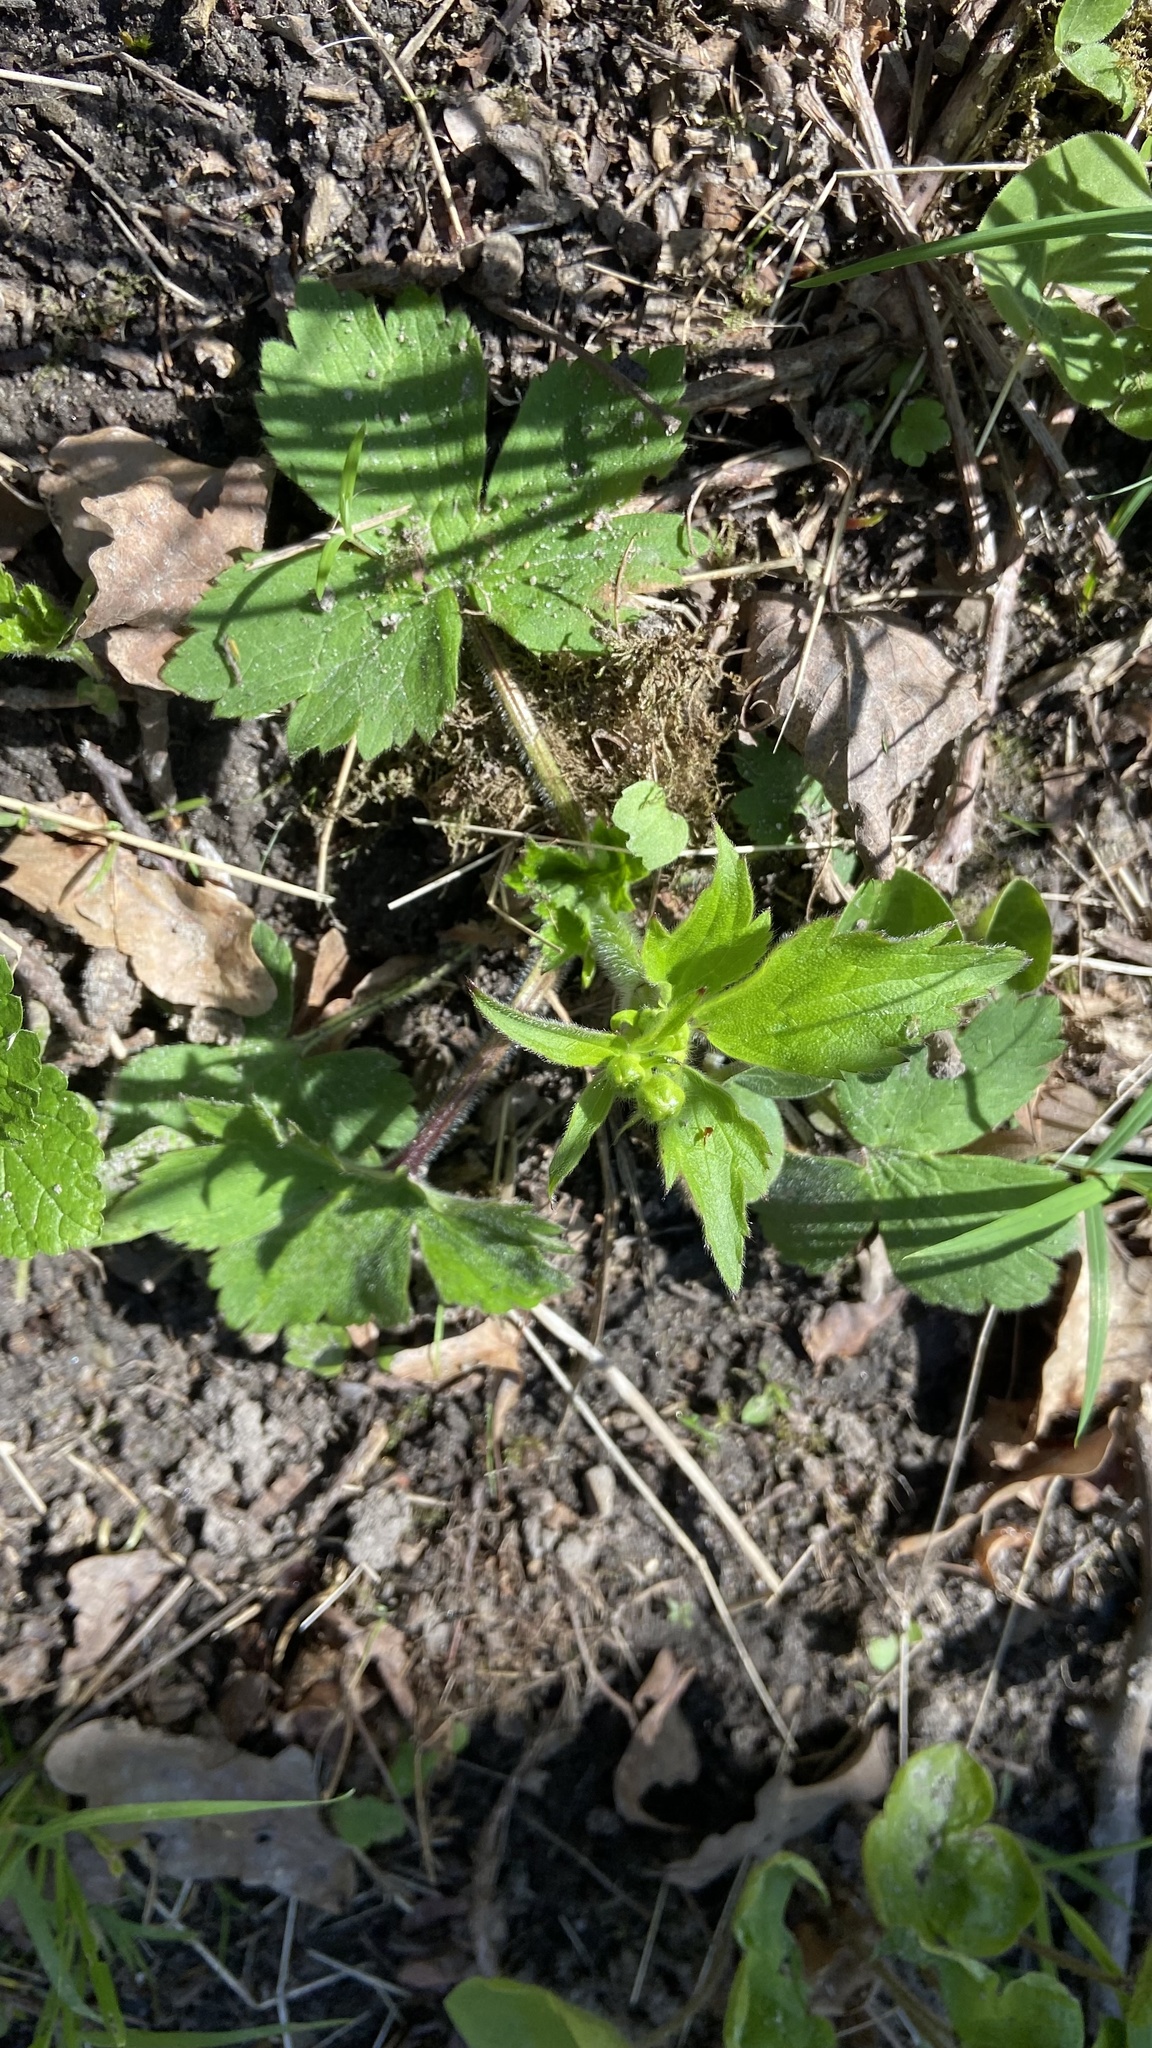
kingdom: Plantae
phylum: Tracheophyta
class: Magnoliopsida
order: Ranunculales
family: Ranunculaceae
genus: Ranunculus
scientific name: Ranunculus lanuginosus
